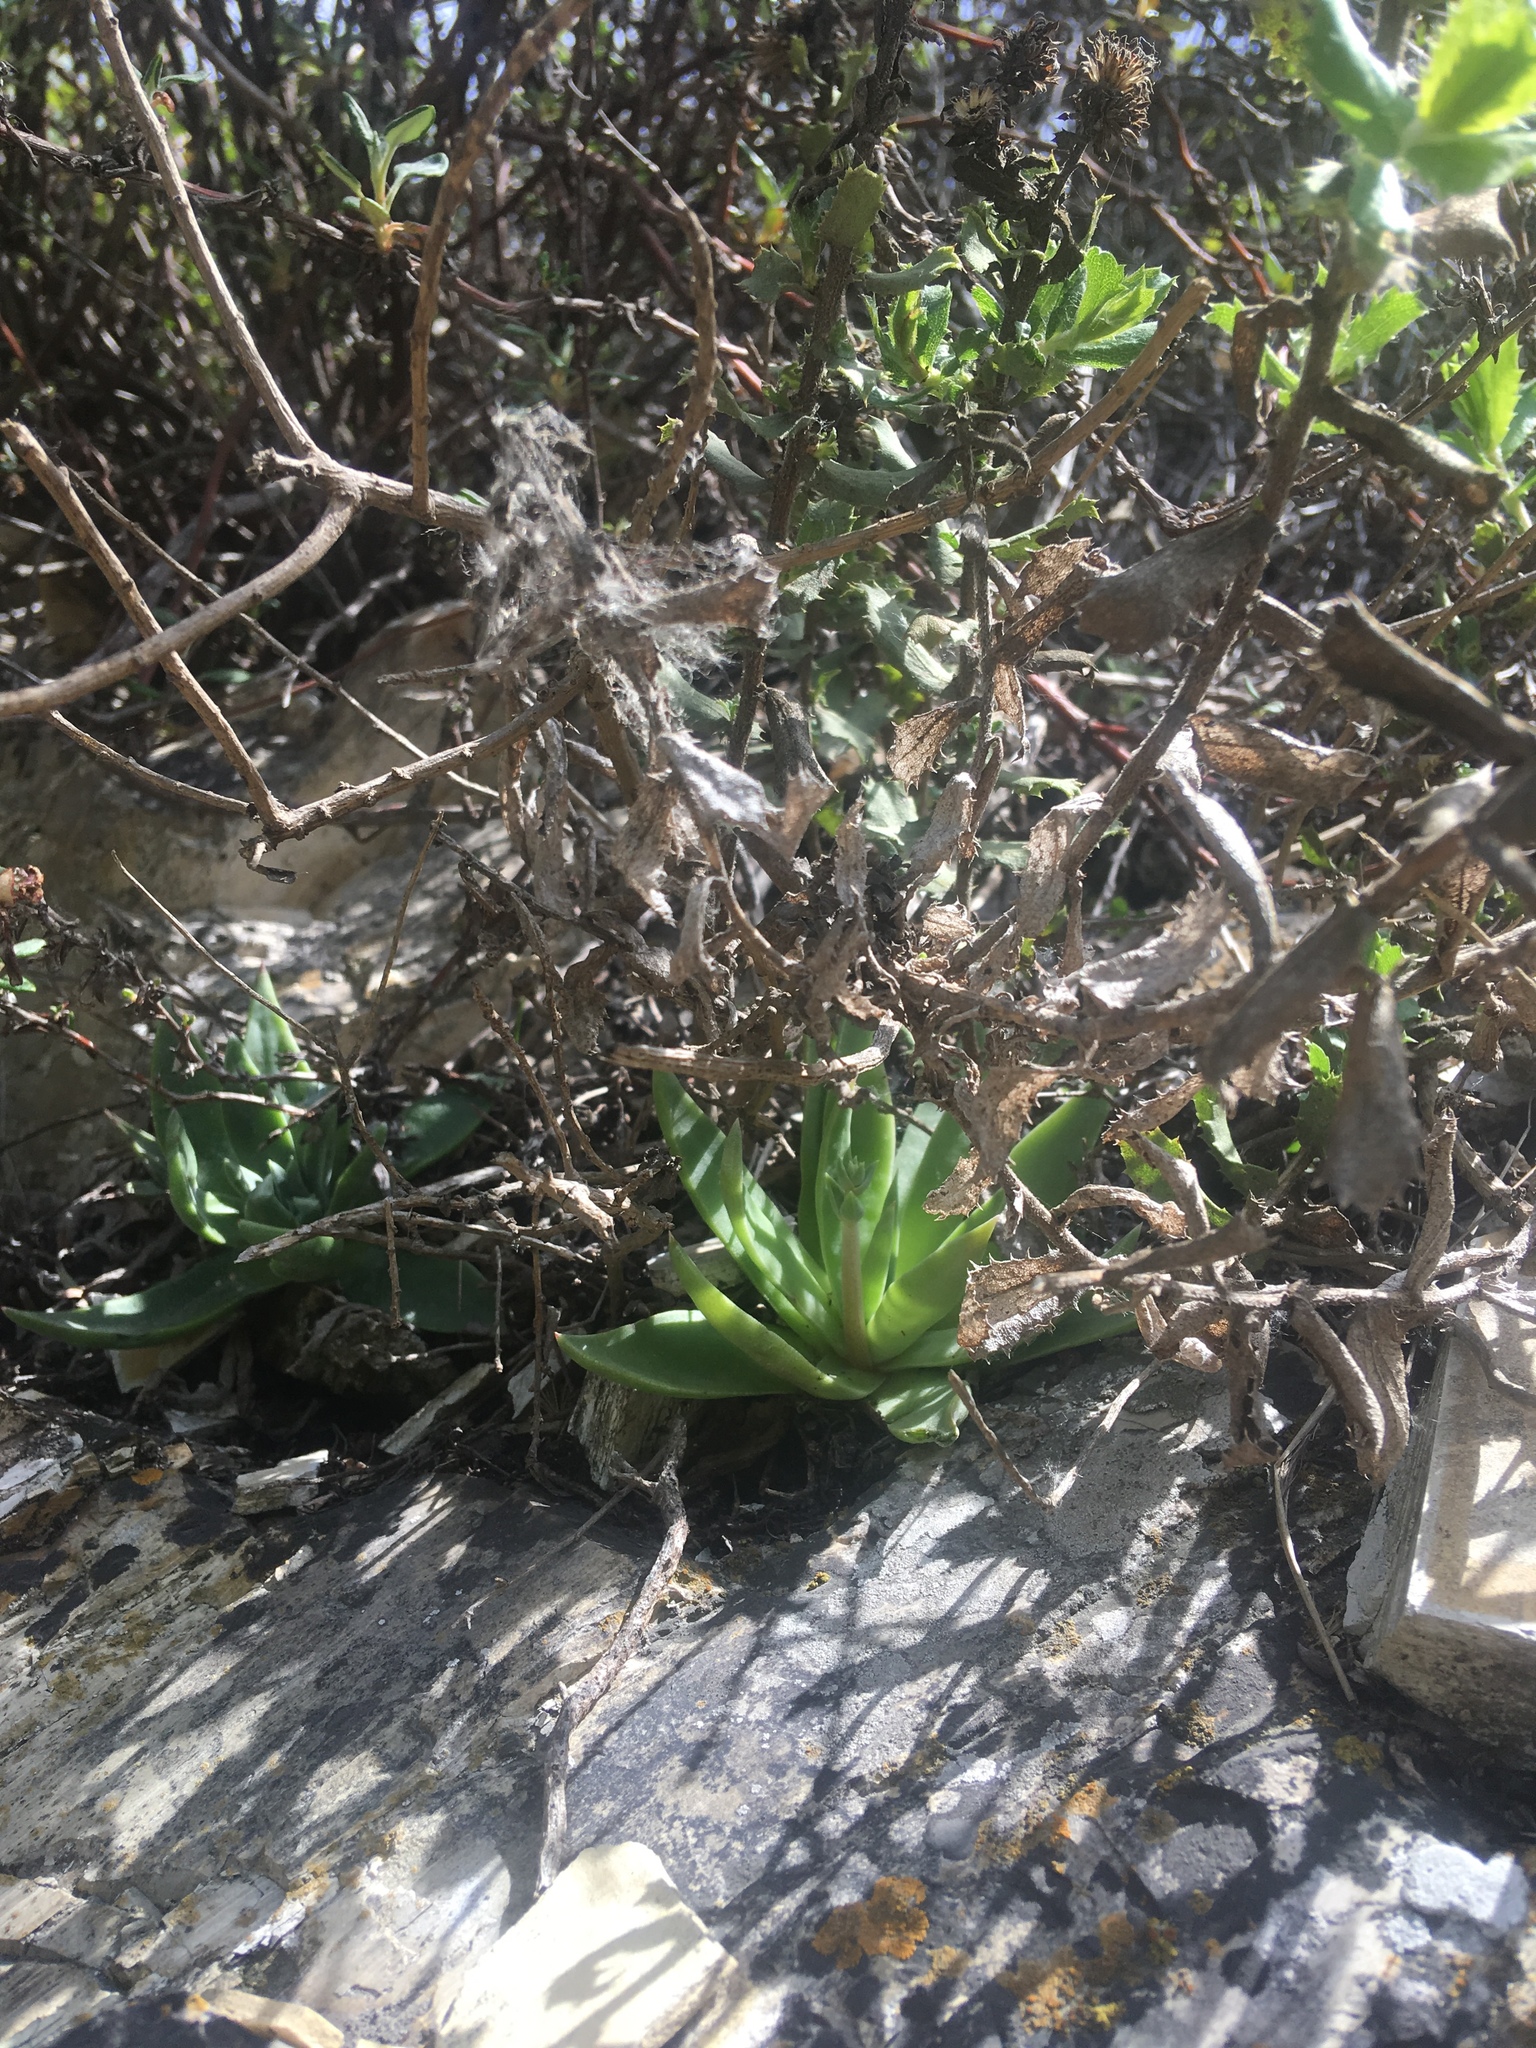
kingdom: Plantae
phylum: Tracheophyta
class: Magnoliopsida
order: Saxifragales
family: Crassulaceae
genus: Dudleya
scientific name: Dudleya lanceolata
